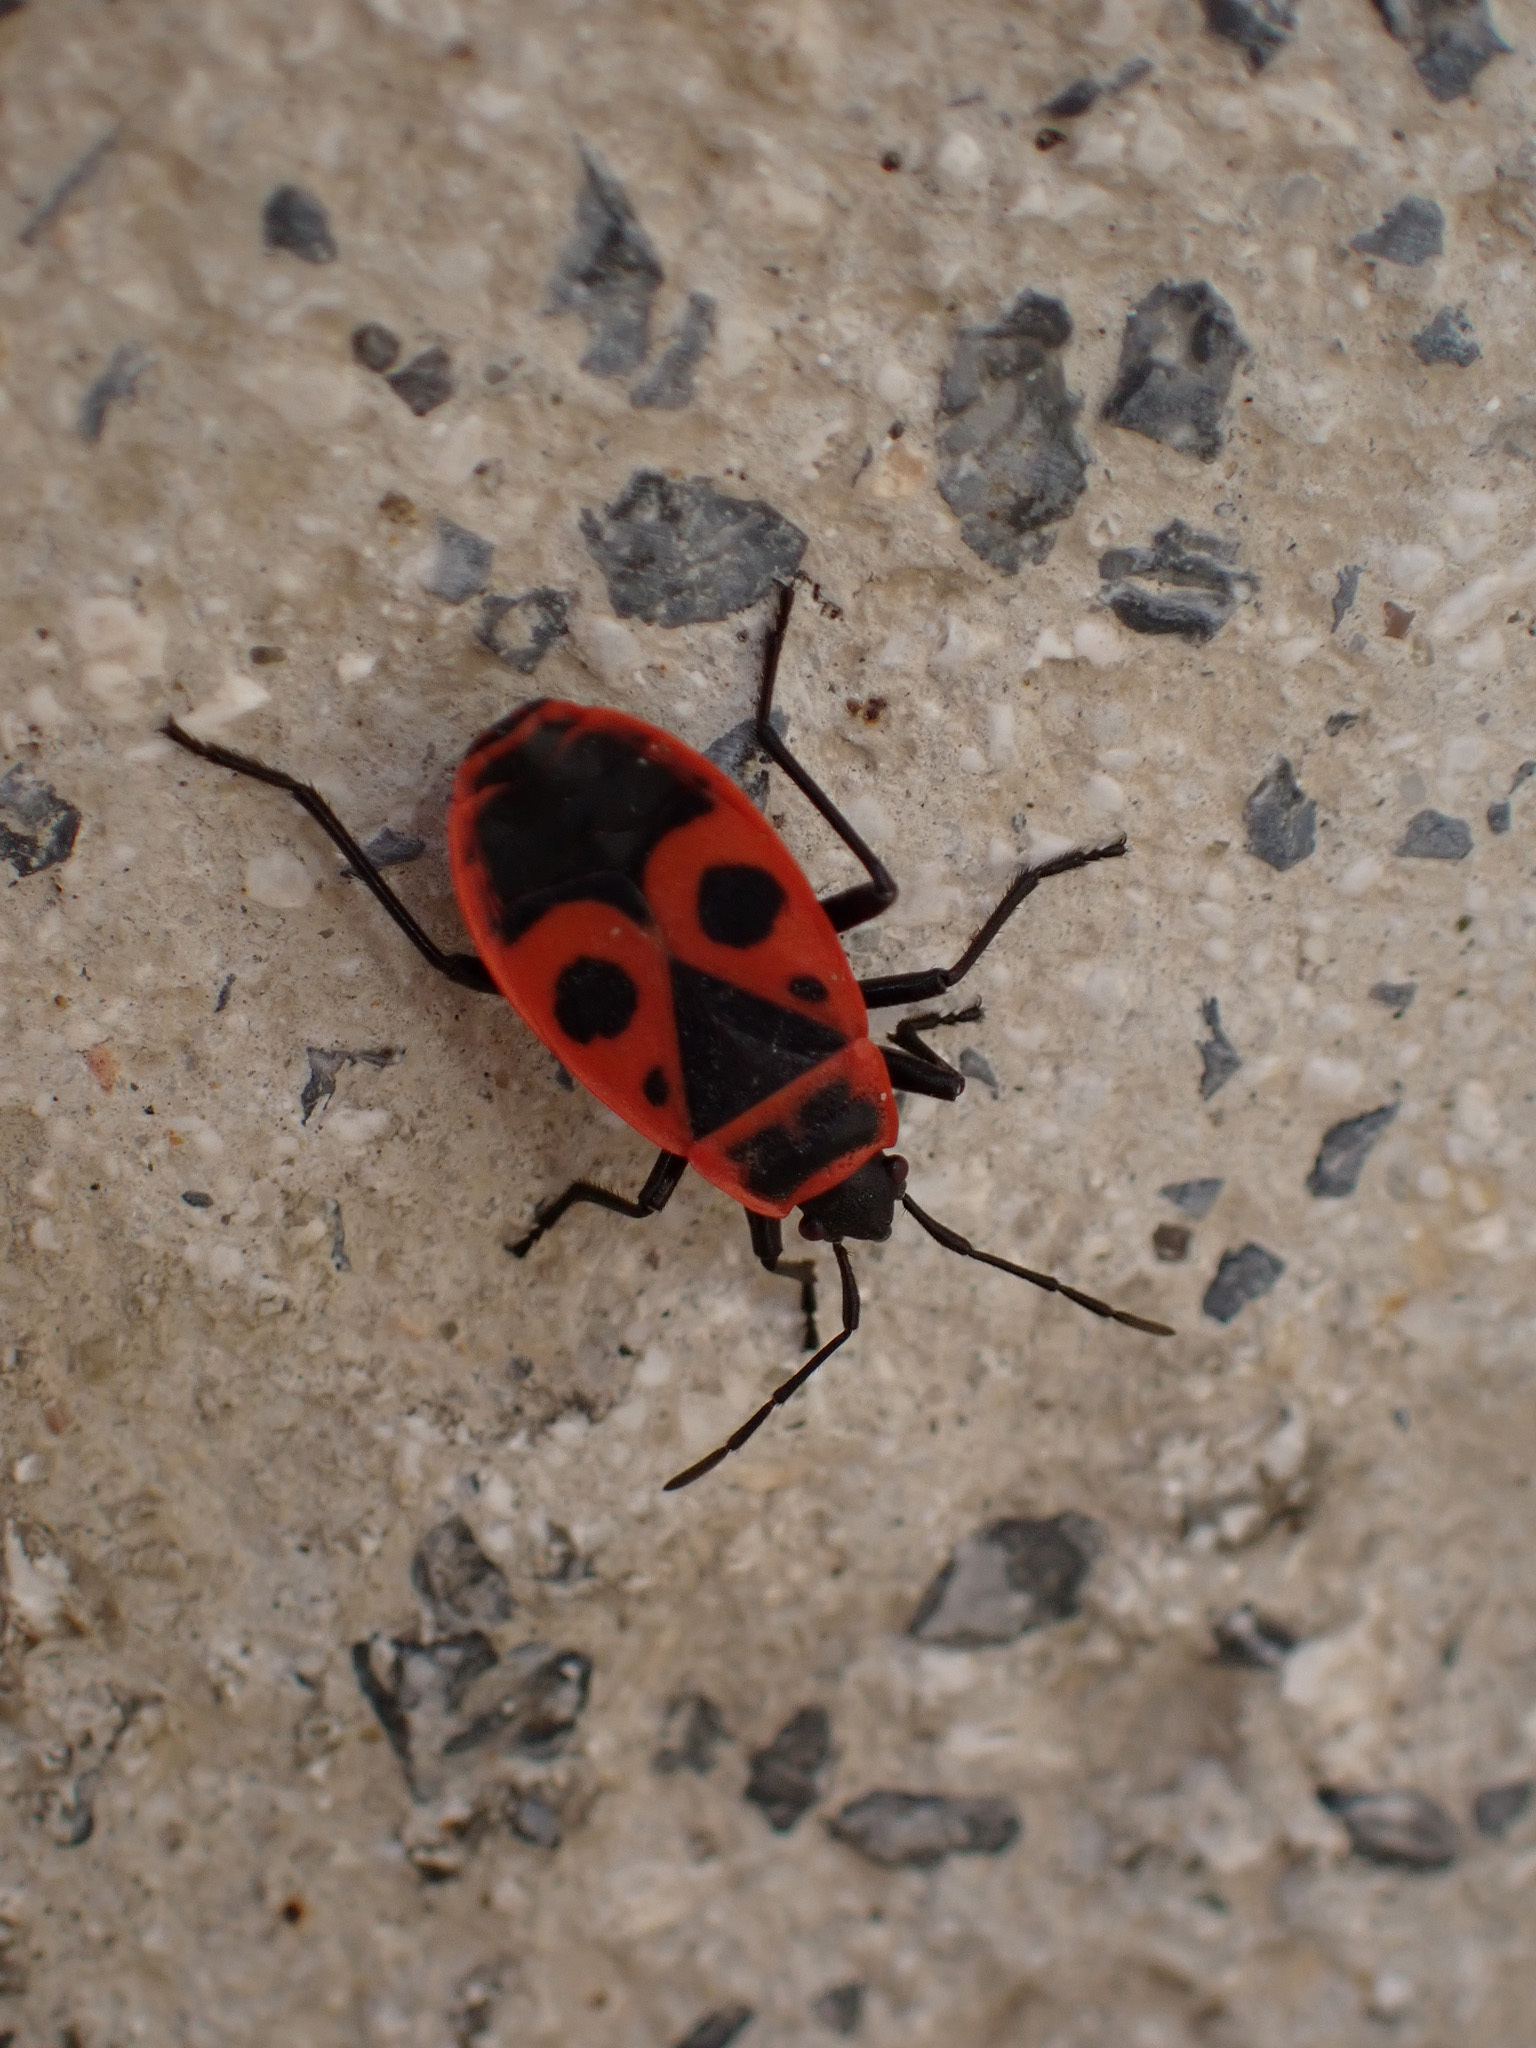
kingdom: Animalia
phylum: Arthropoda
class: Insecta
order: Hemiptera
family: Pyrrhocoridae
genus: Pyrrhocoris
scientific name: Pyrrhocoris apterus
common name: Firebug
